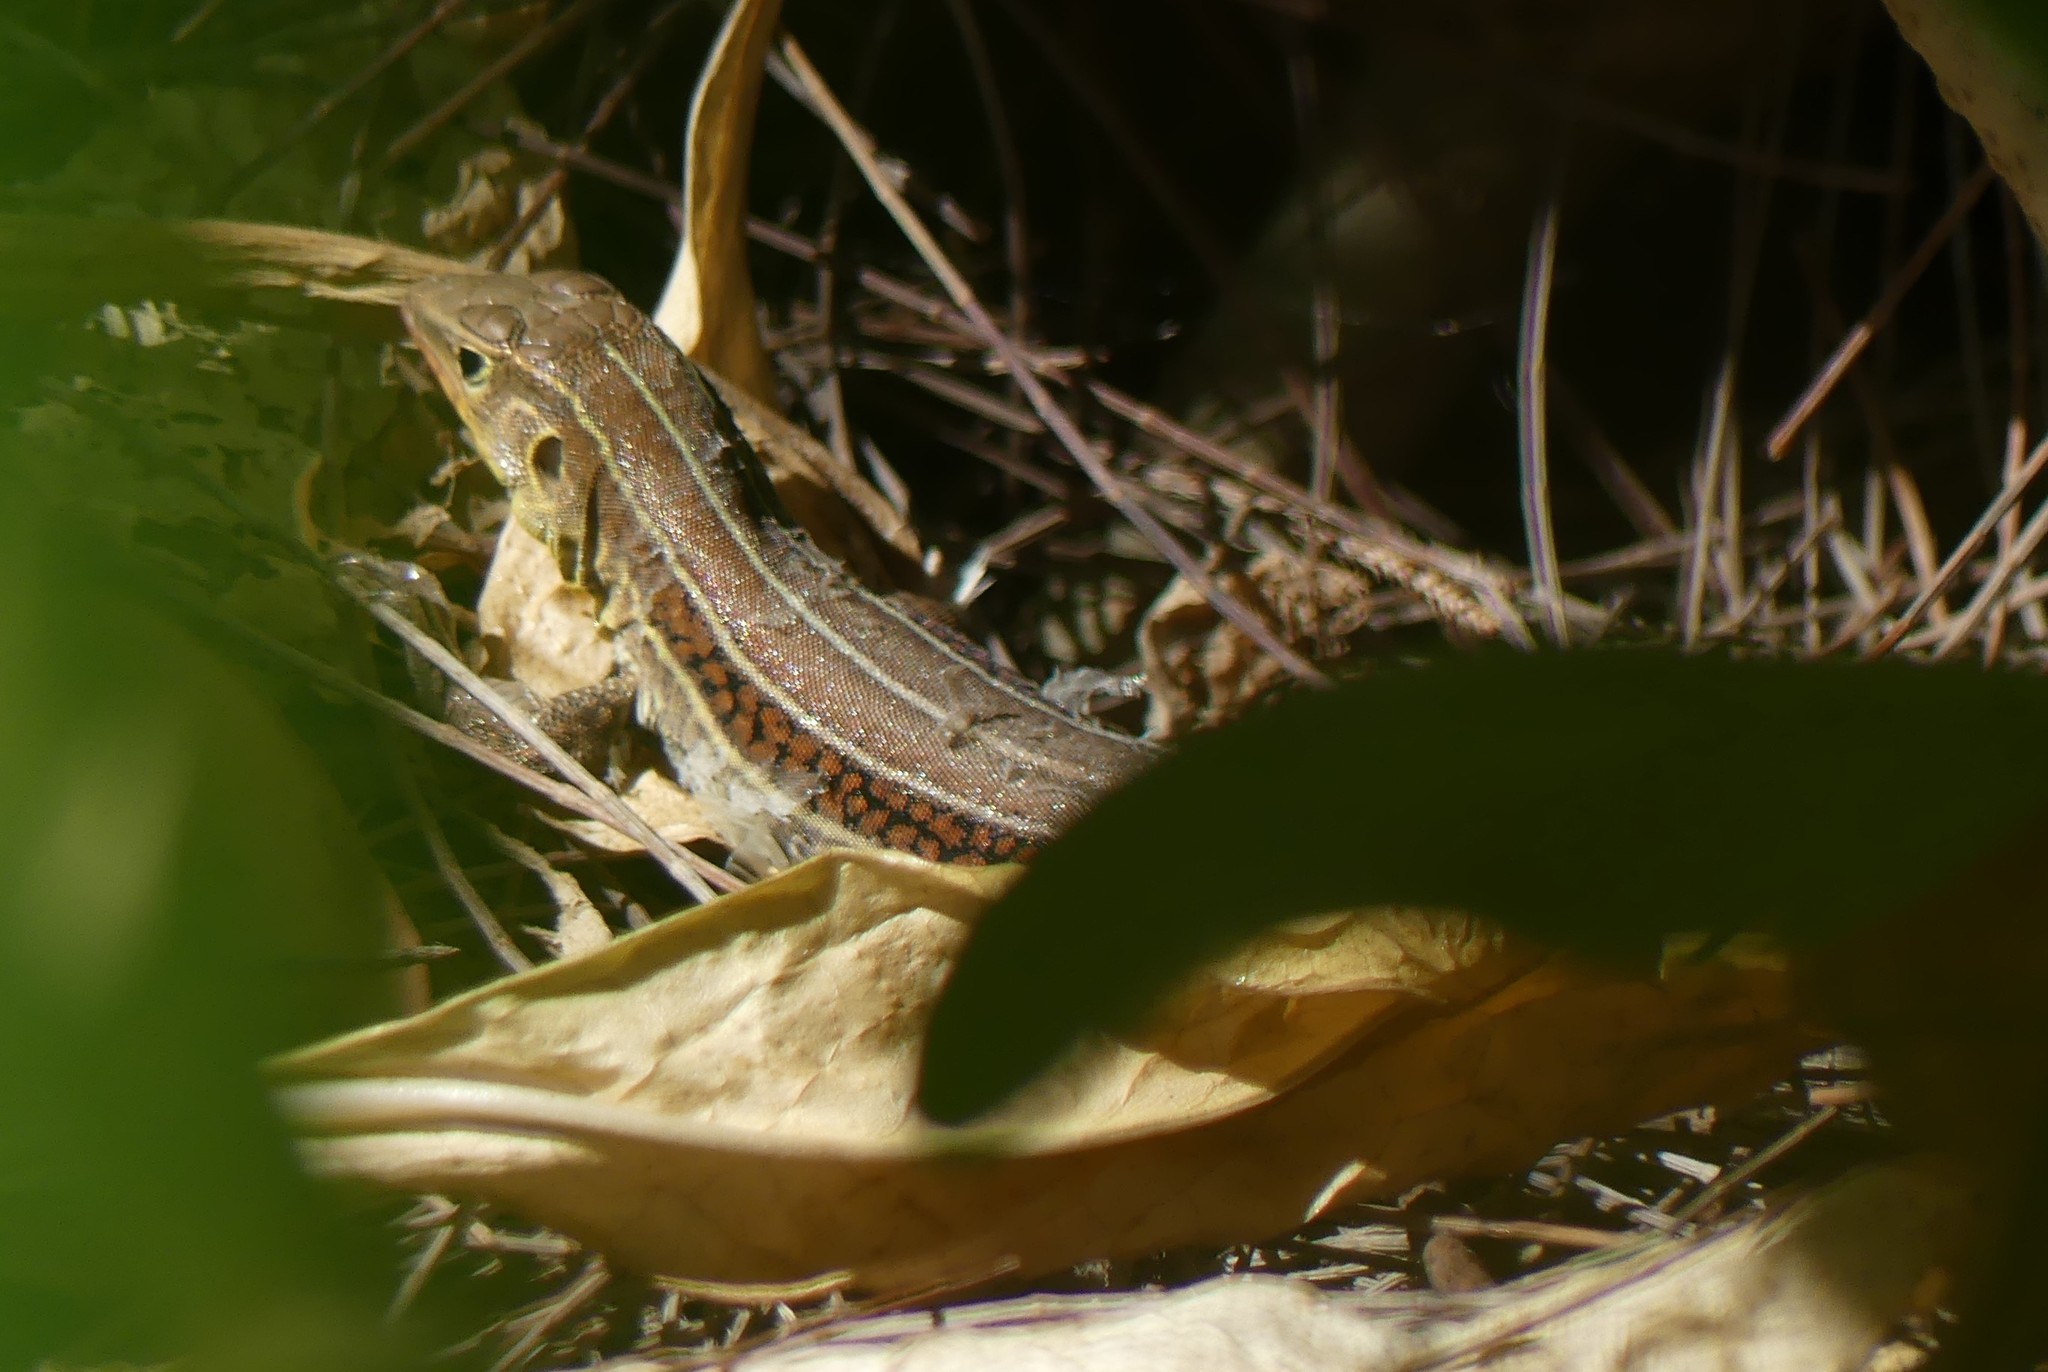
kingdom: Animalia
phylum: Chordata
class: Squamata
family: Teiidae
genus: Pholidoscelis
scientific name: Pholidoscelis auberi
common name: Auber's ameiva
